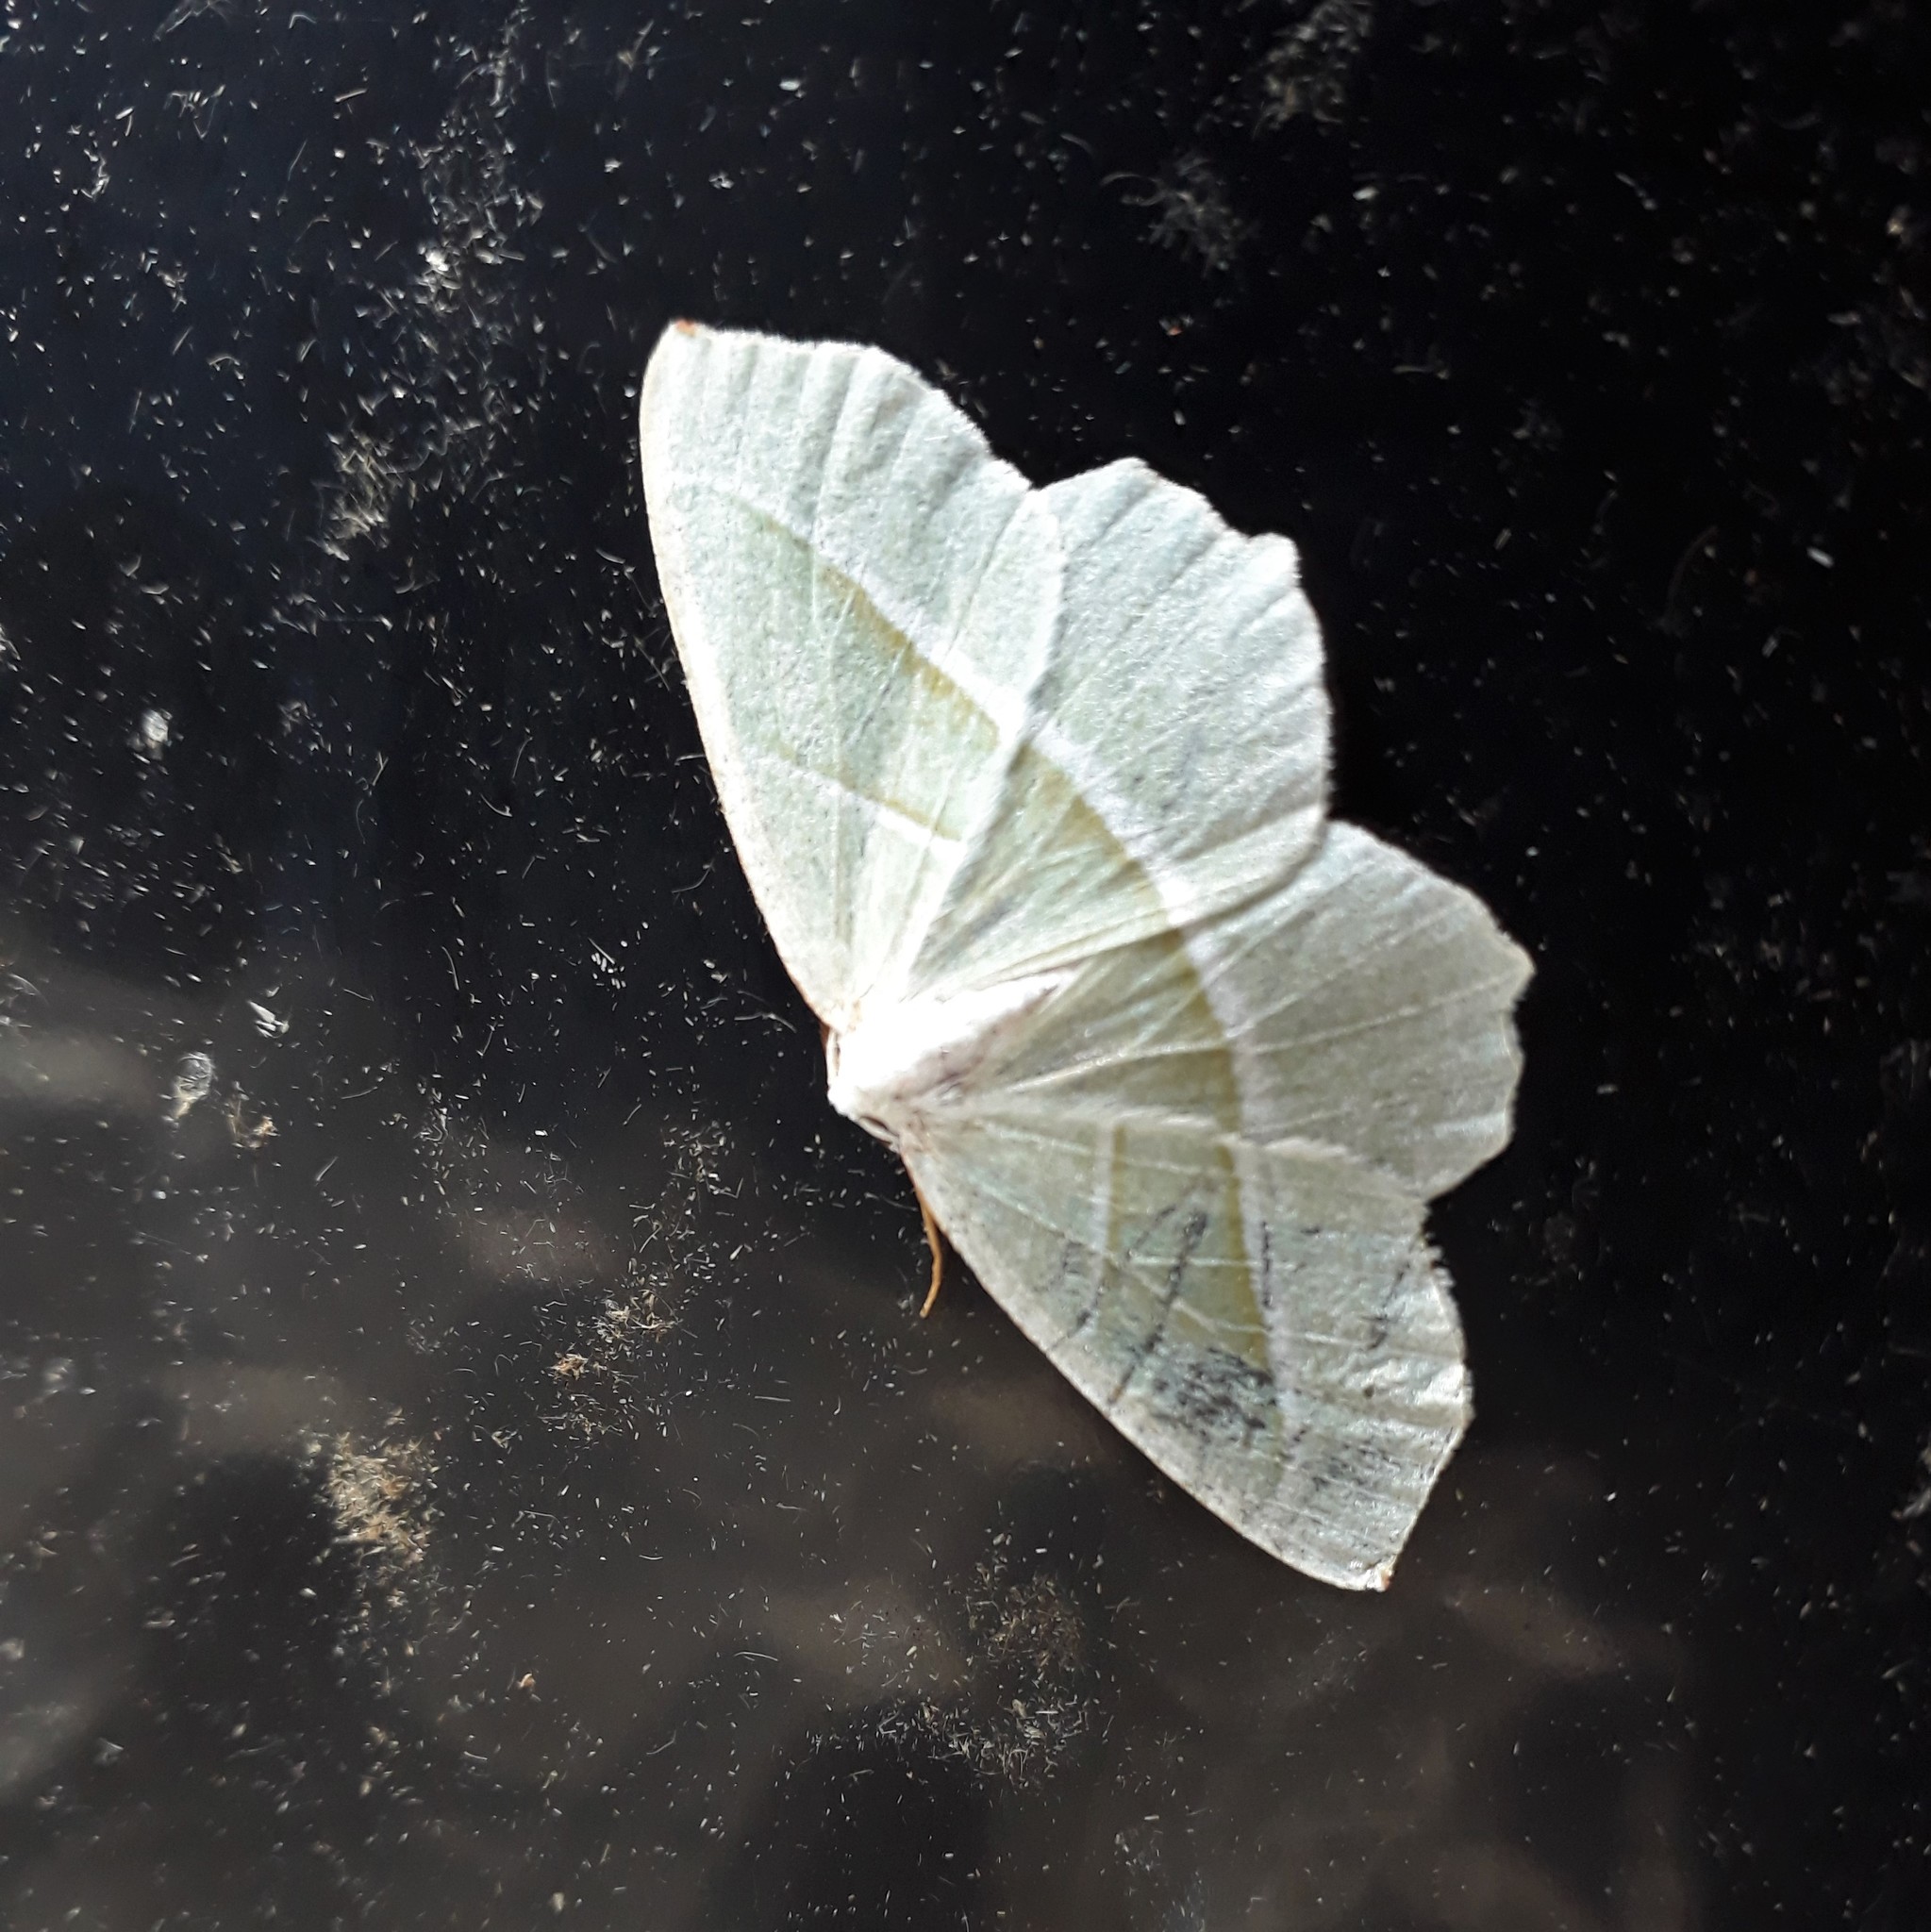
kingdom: Animalia
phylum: Arthropoda
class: Insecta
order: Lepidoptera
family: Geometridae
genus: Campaea
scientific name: Campaea margaritaria
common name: Light emerald
